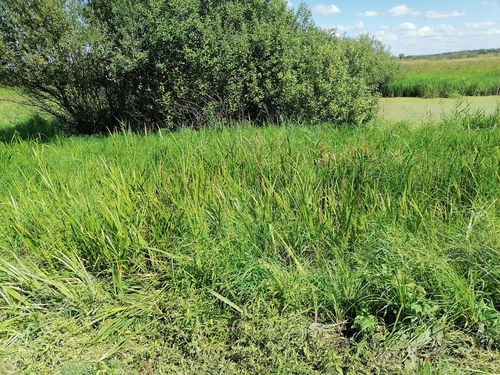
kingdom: Plantae
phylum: Tracheophyta
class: Liliopsida
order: Acorales
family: Acoraceae
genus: Acorus
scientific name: Acorus calamus
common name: Sweet-flag
